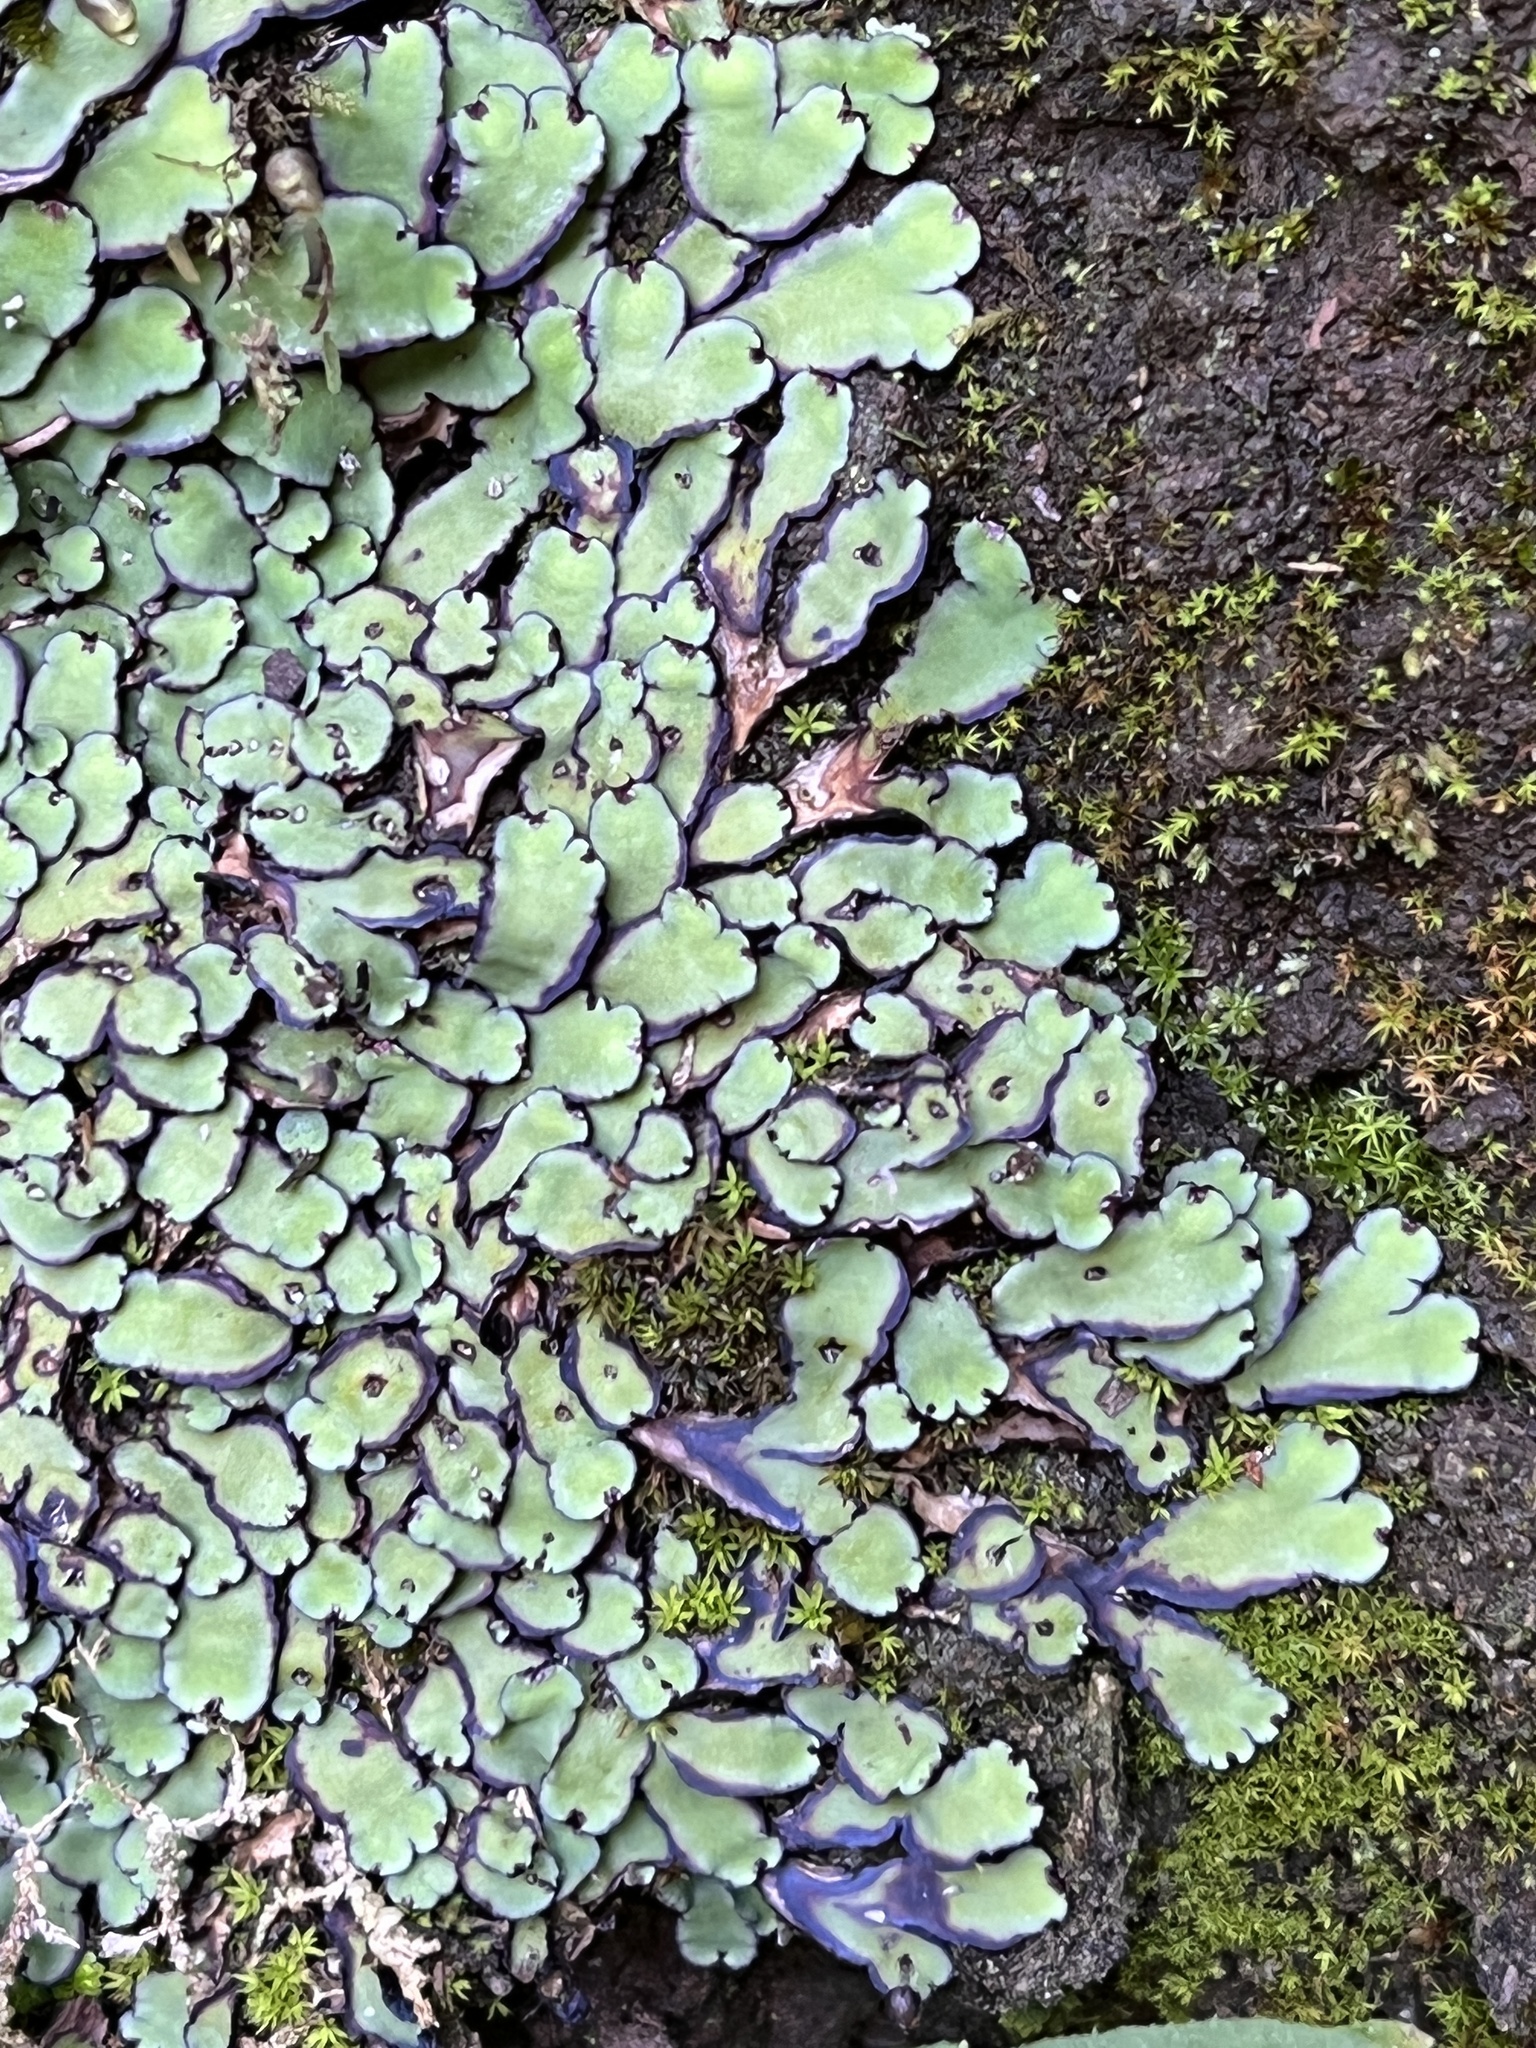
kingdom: Plantae
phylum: Marchantiophyta
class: Marchantiopsida
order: Marchantiales
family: Aytoniaceae
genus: Plagiochasma
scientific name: Plagiochasma rupestre
